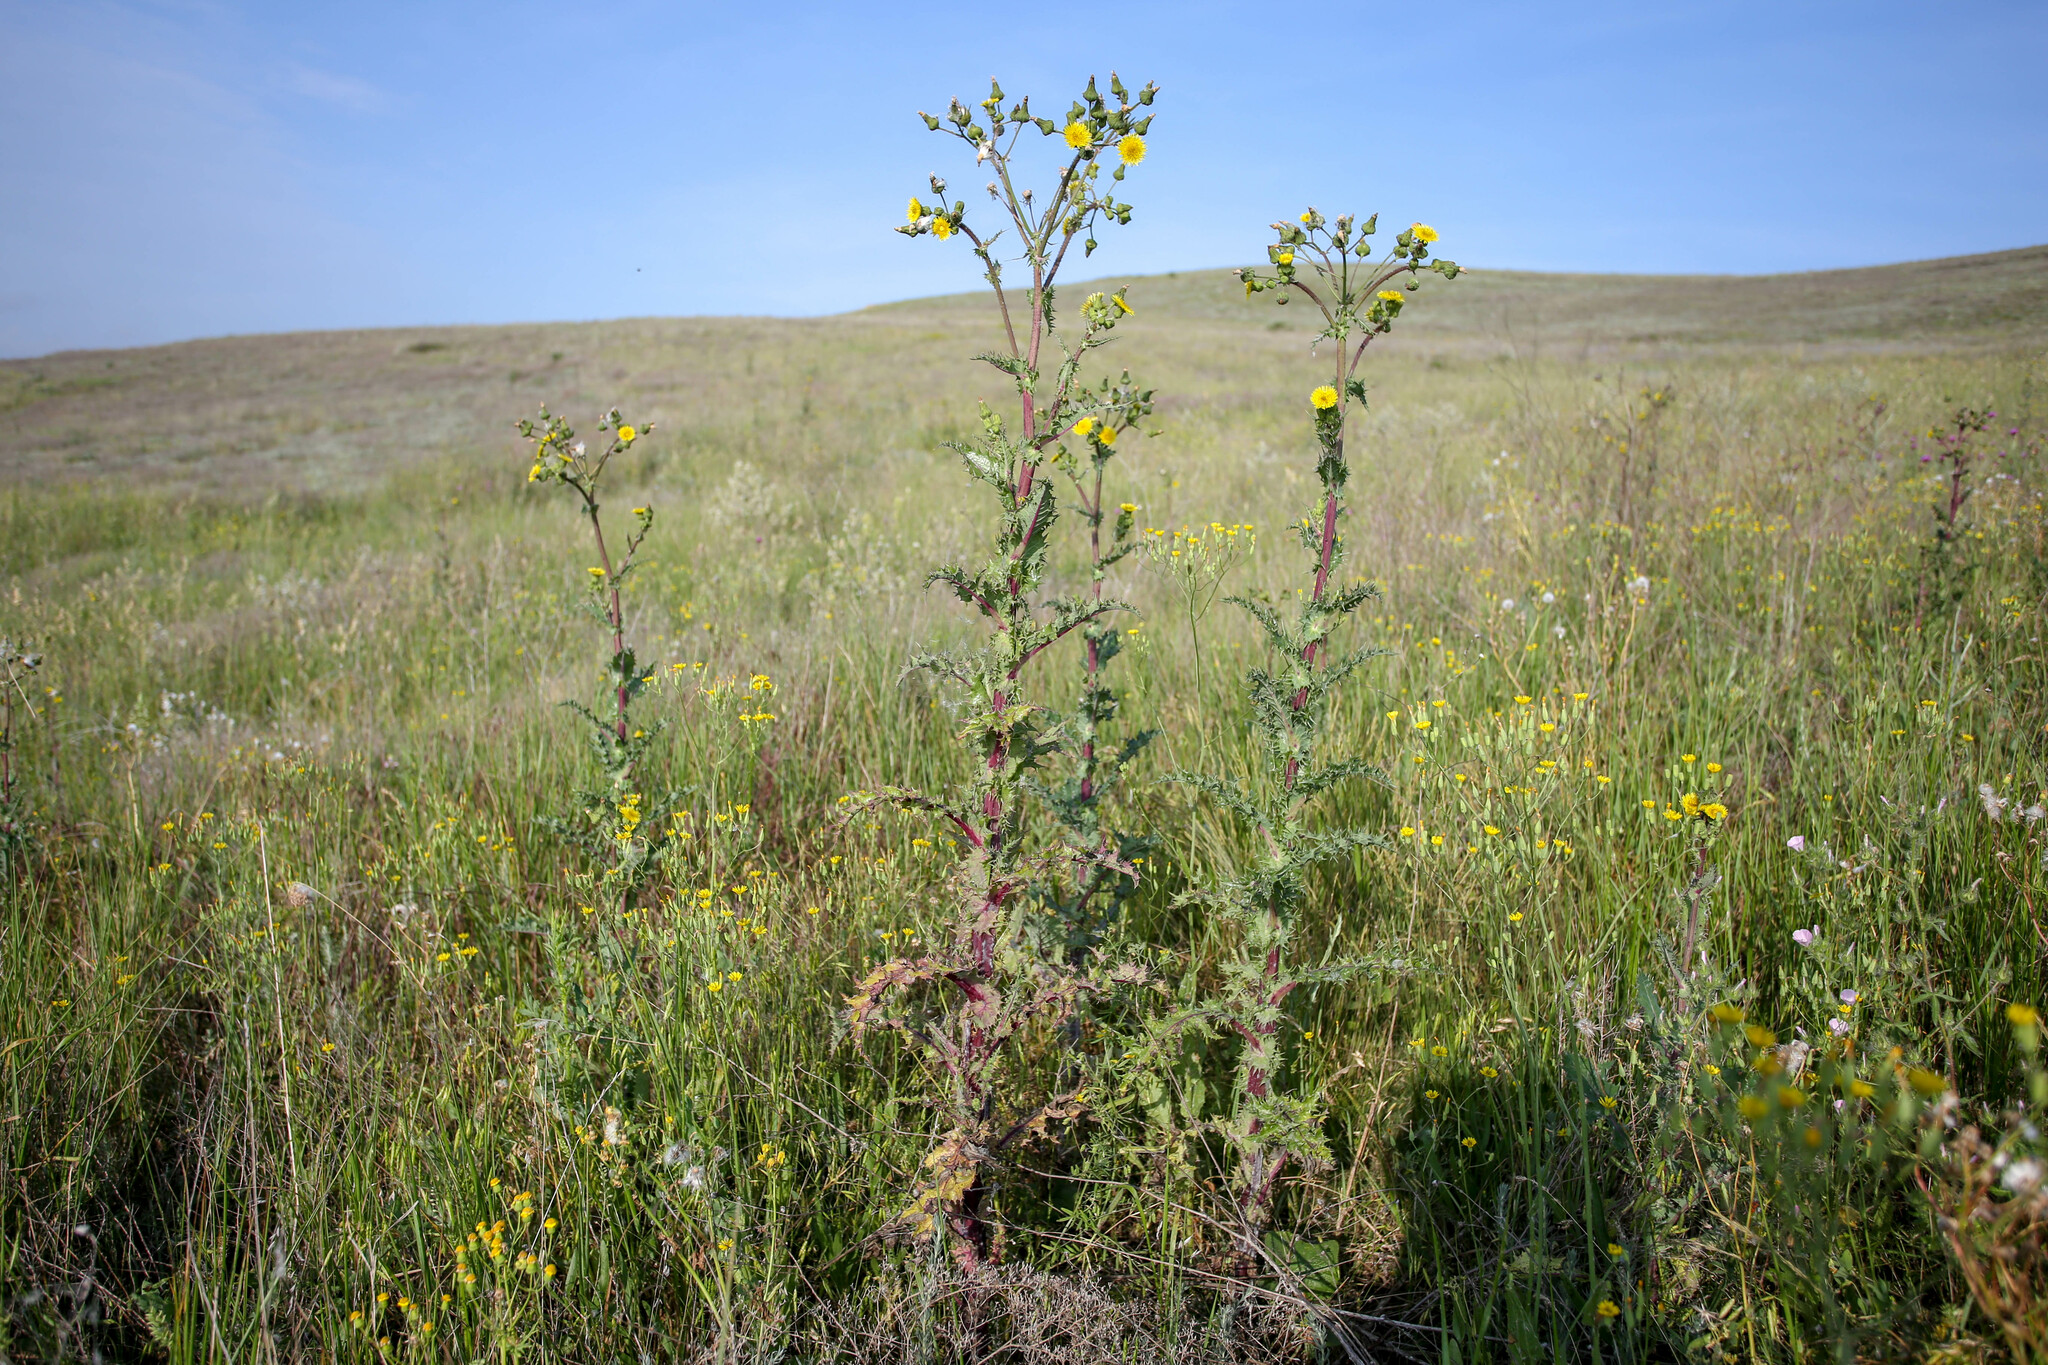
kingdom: Plantae
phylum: Tracheophyta
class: Magnoliopsida
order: Asterales
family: Asteraceae
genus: Sonchus
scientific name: Sonchus asper
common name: Prickly sow-thistle
